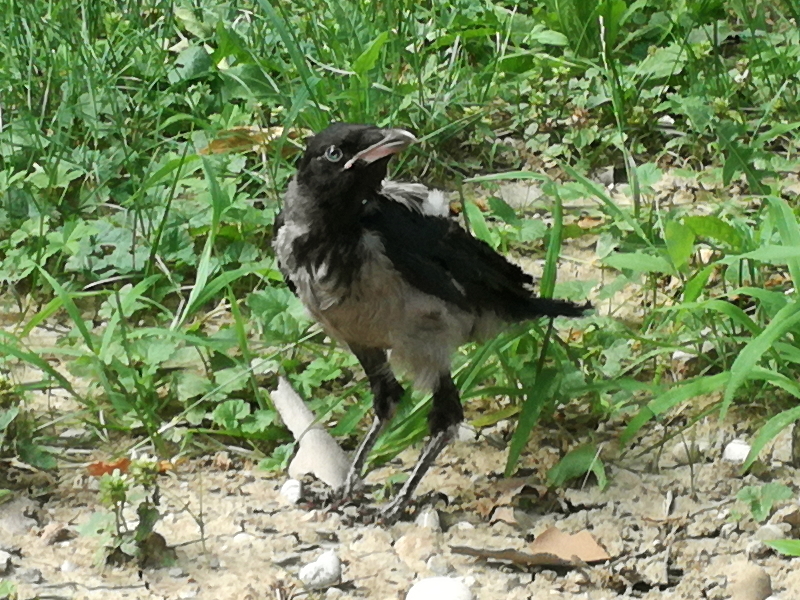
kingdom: Animalia
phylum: Chordata
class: Aves
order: Passeriformes
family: Corvidae
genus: Corvus
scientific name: Corvus cornix
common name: Hooded crow
